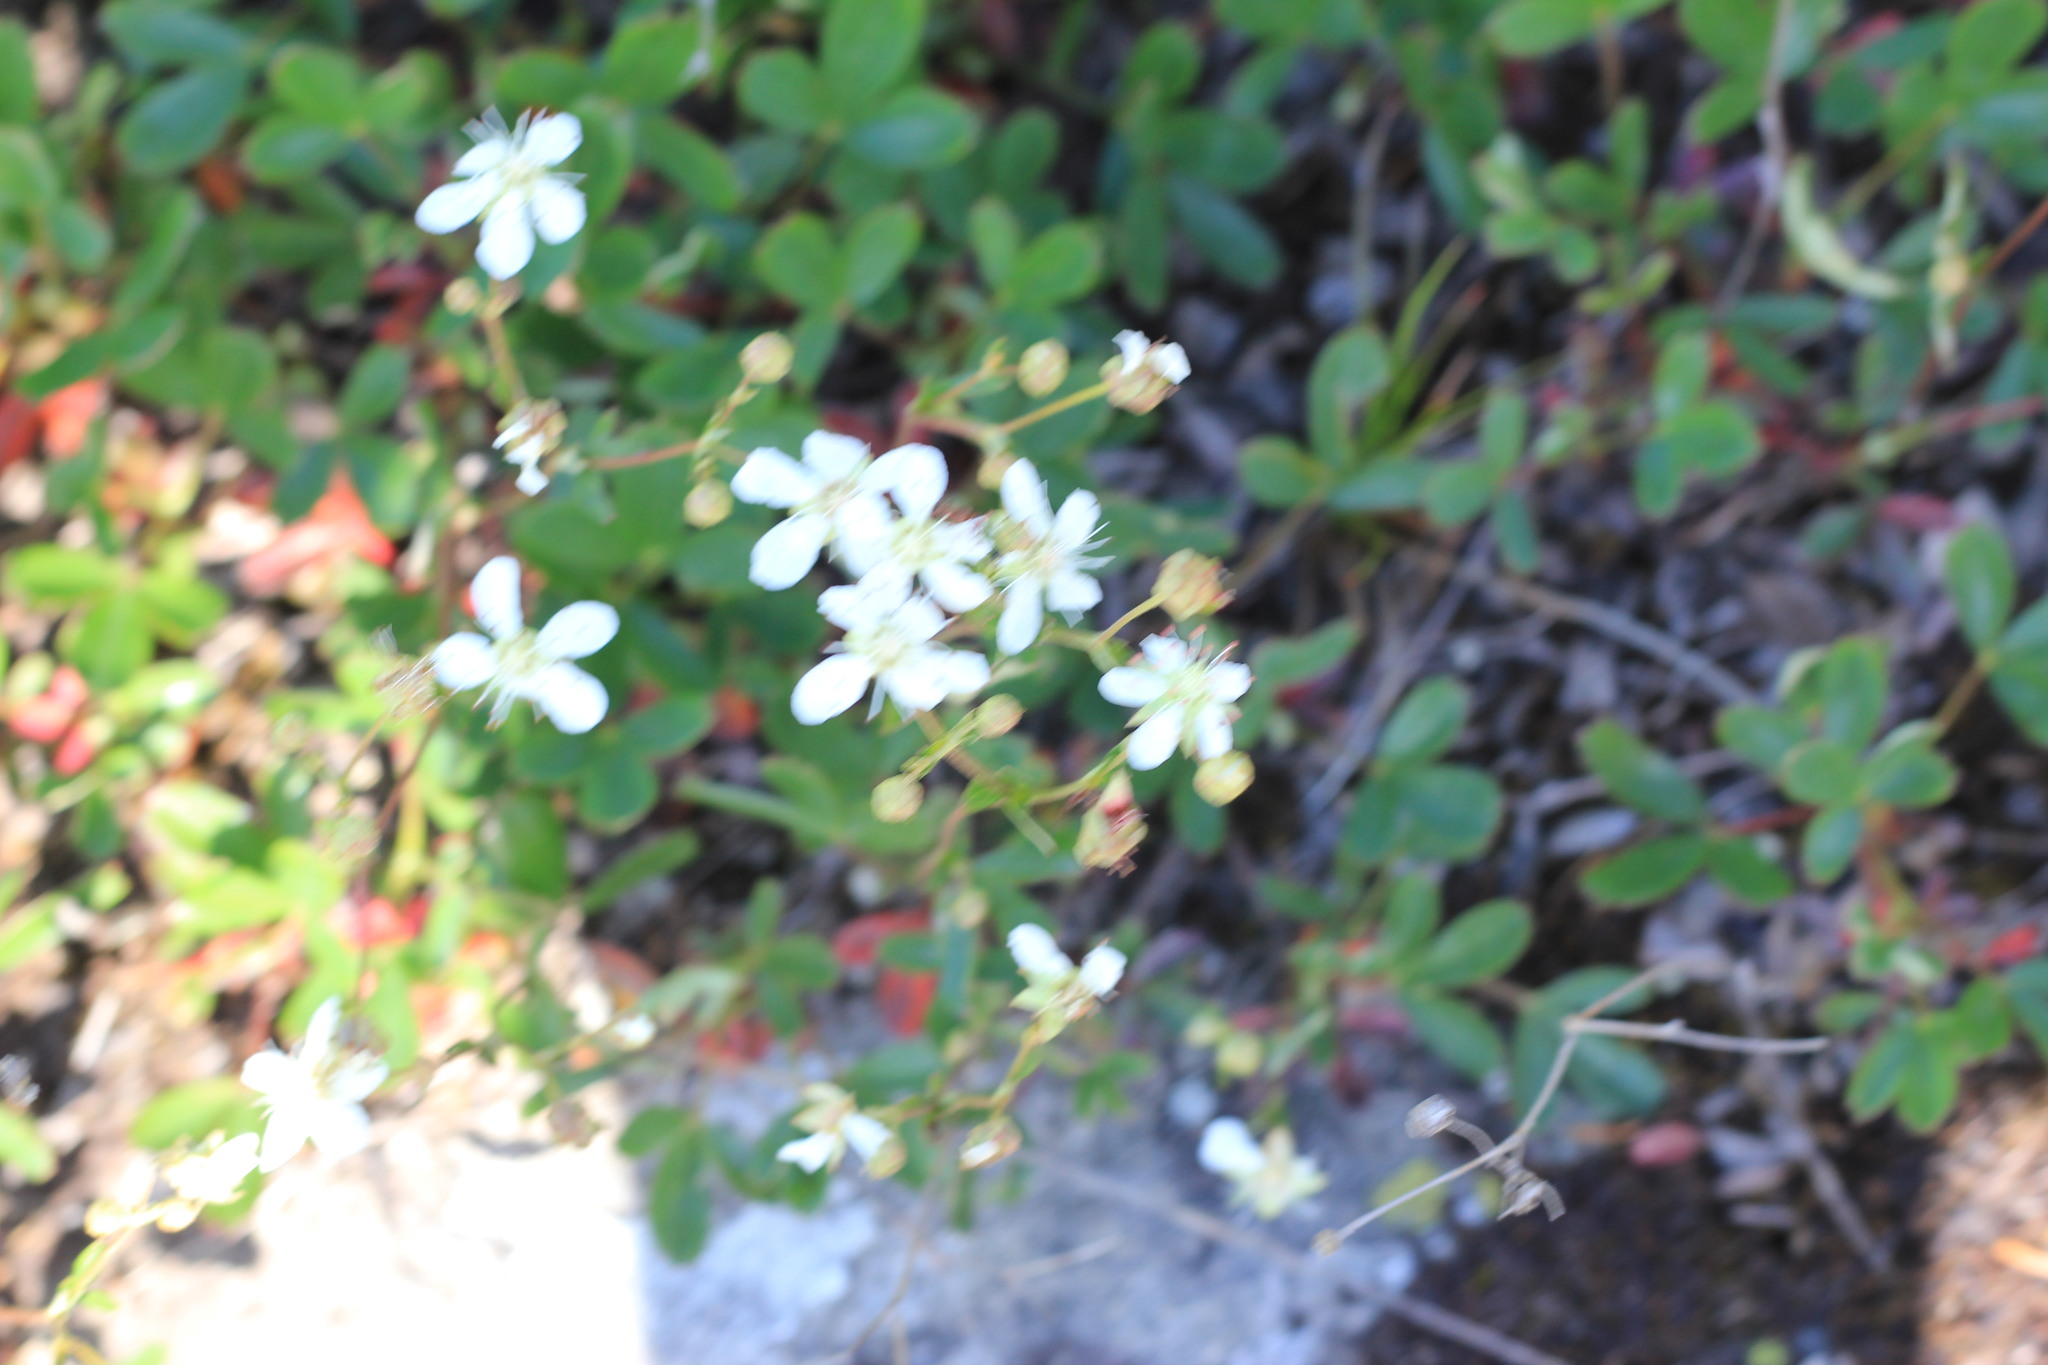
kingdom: Plantae
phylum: Tracheophyta
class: Magnoliopsida
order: Rosales
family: Rosaceae
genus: Sibbaldia
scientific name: Sibbaldia tridentata
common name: Three-toothed cinquefoil
